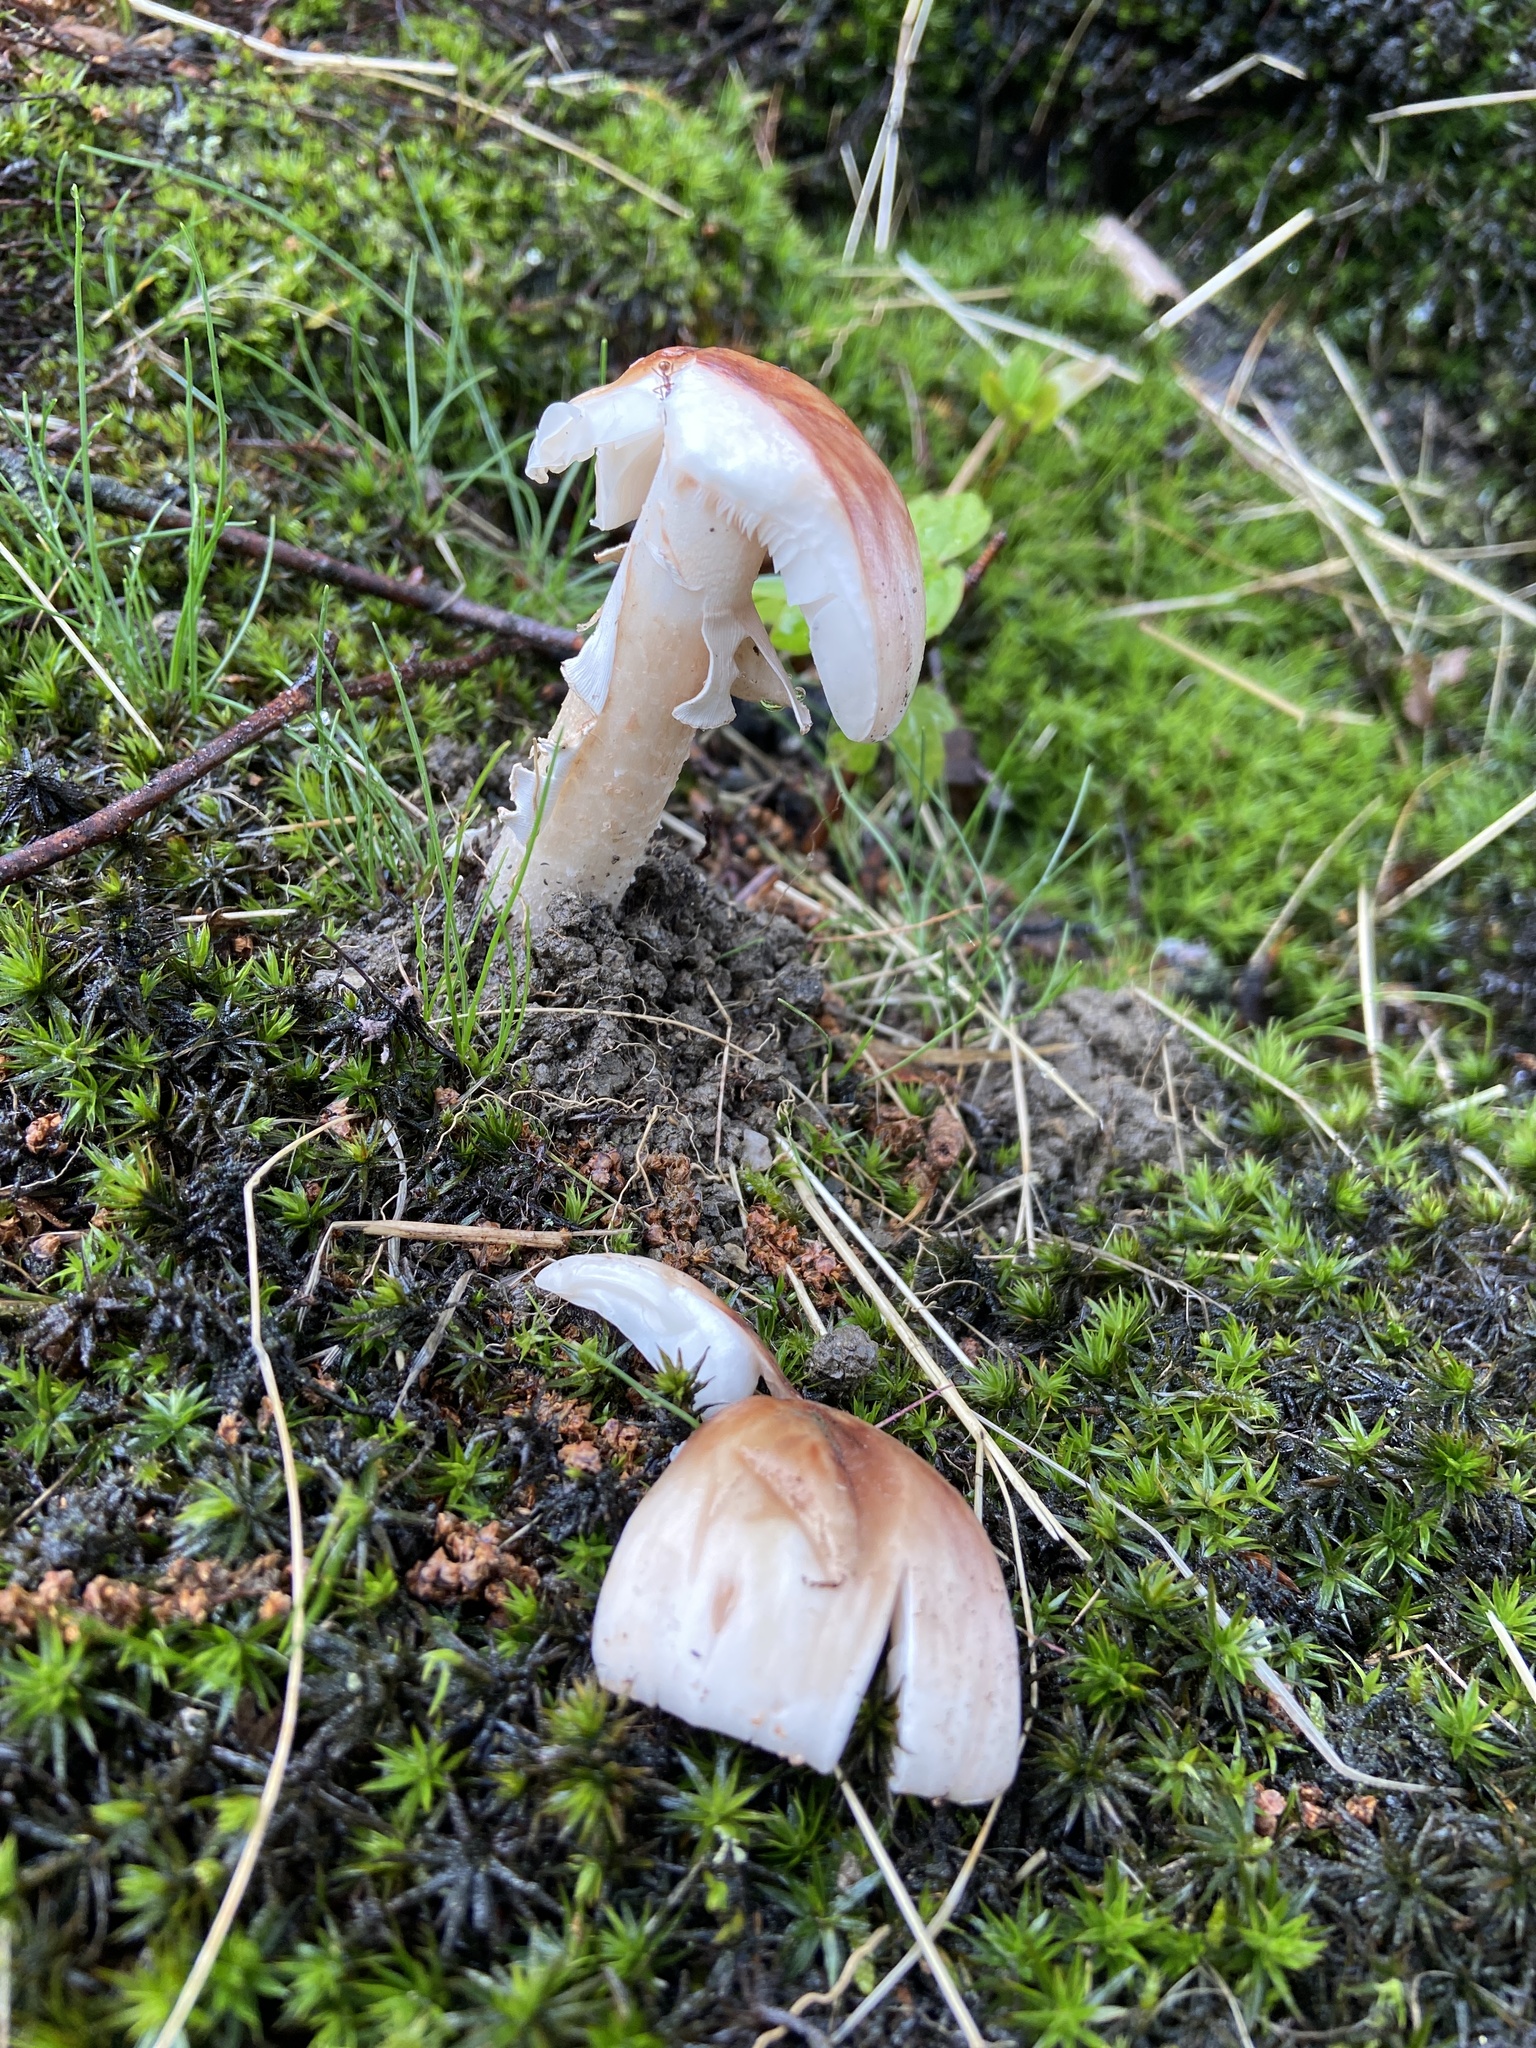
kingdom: Fungi
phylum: Basidiomycota
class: Agaricomycetes
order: Agaricales
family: Amanitaceae
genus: Amanita
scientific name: Amanita rubescens
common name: Blusher
